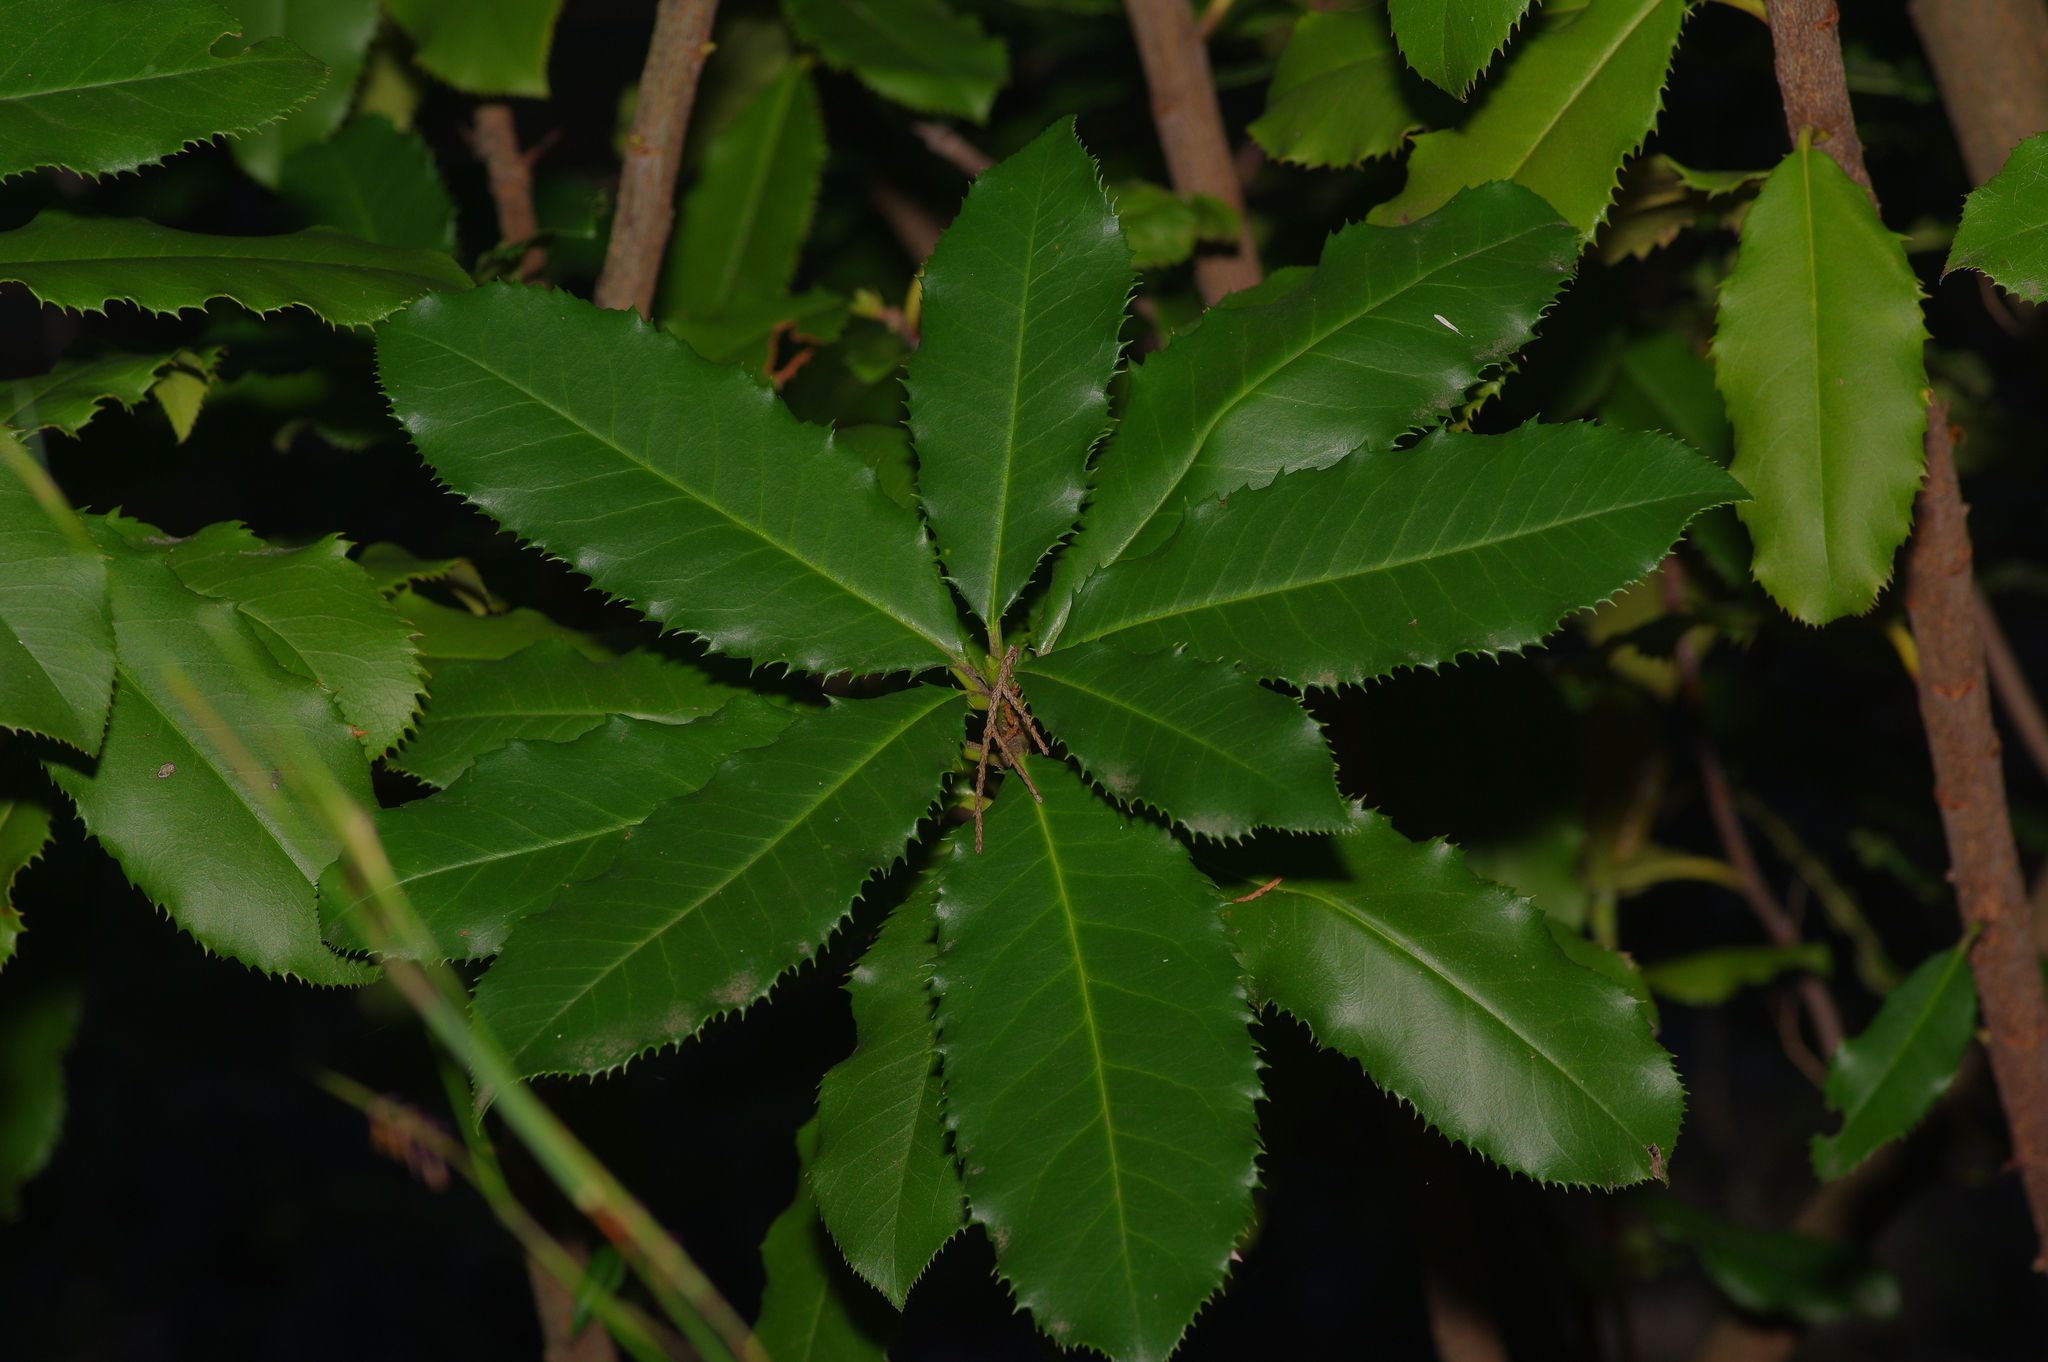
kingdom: Plantae
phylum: Tracheophyta
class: Magnoliopsida
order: Rosales
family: Rosaceae
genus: Photinia
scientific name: Photinia serratifolia
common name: Taiwanese photinia
